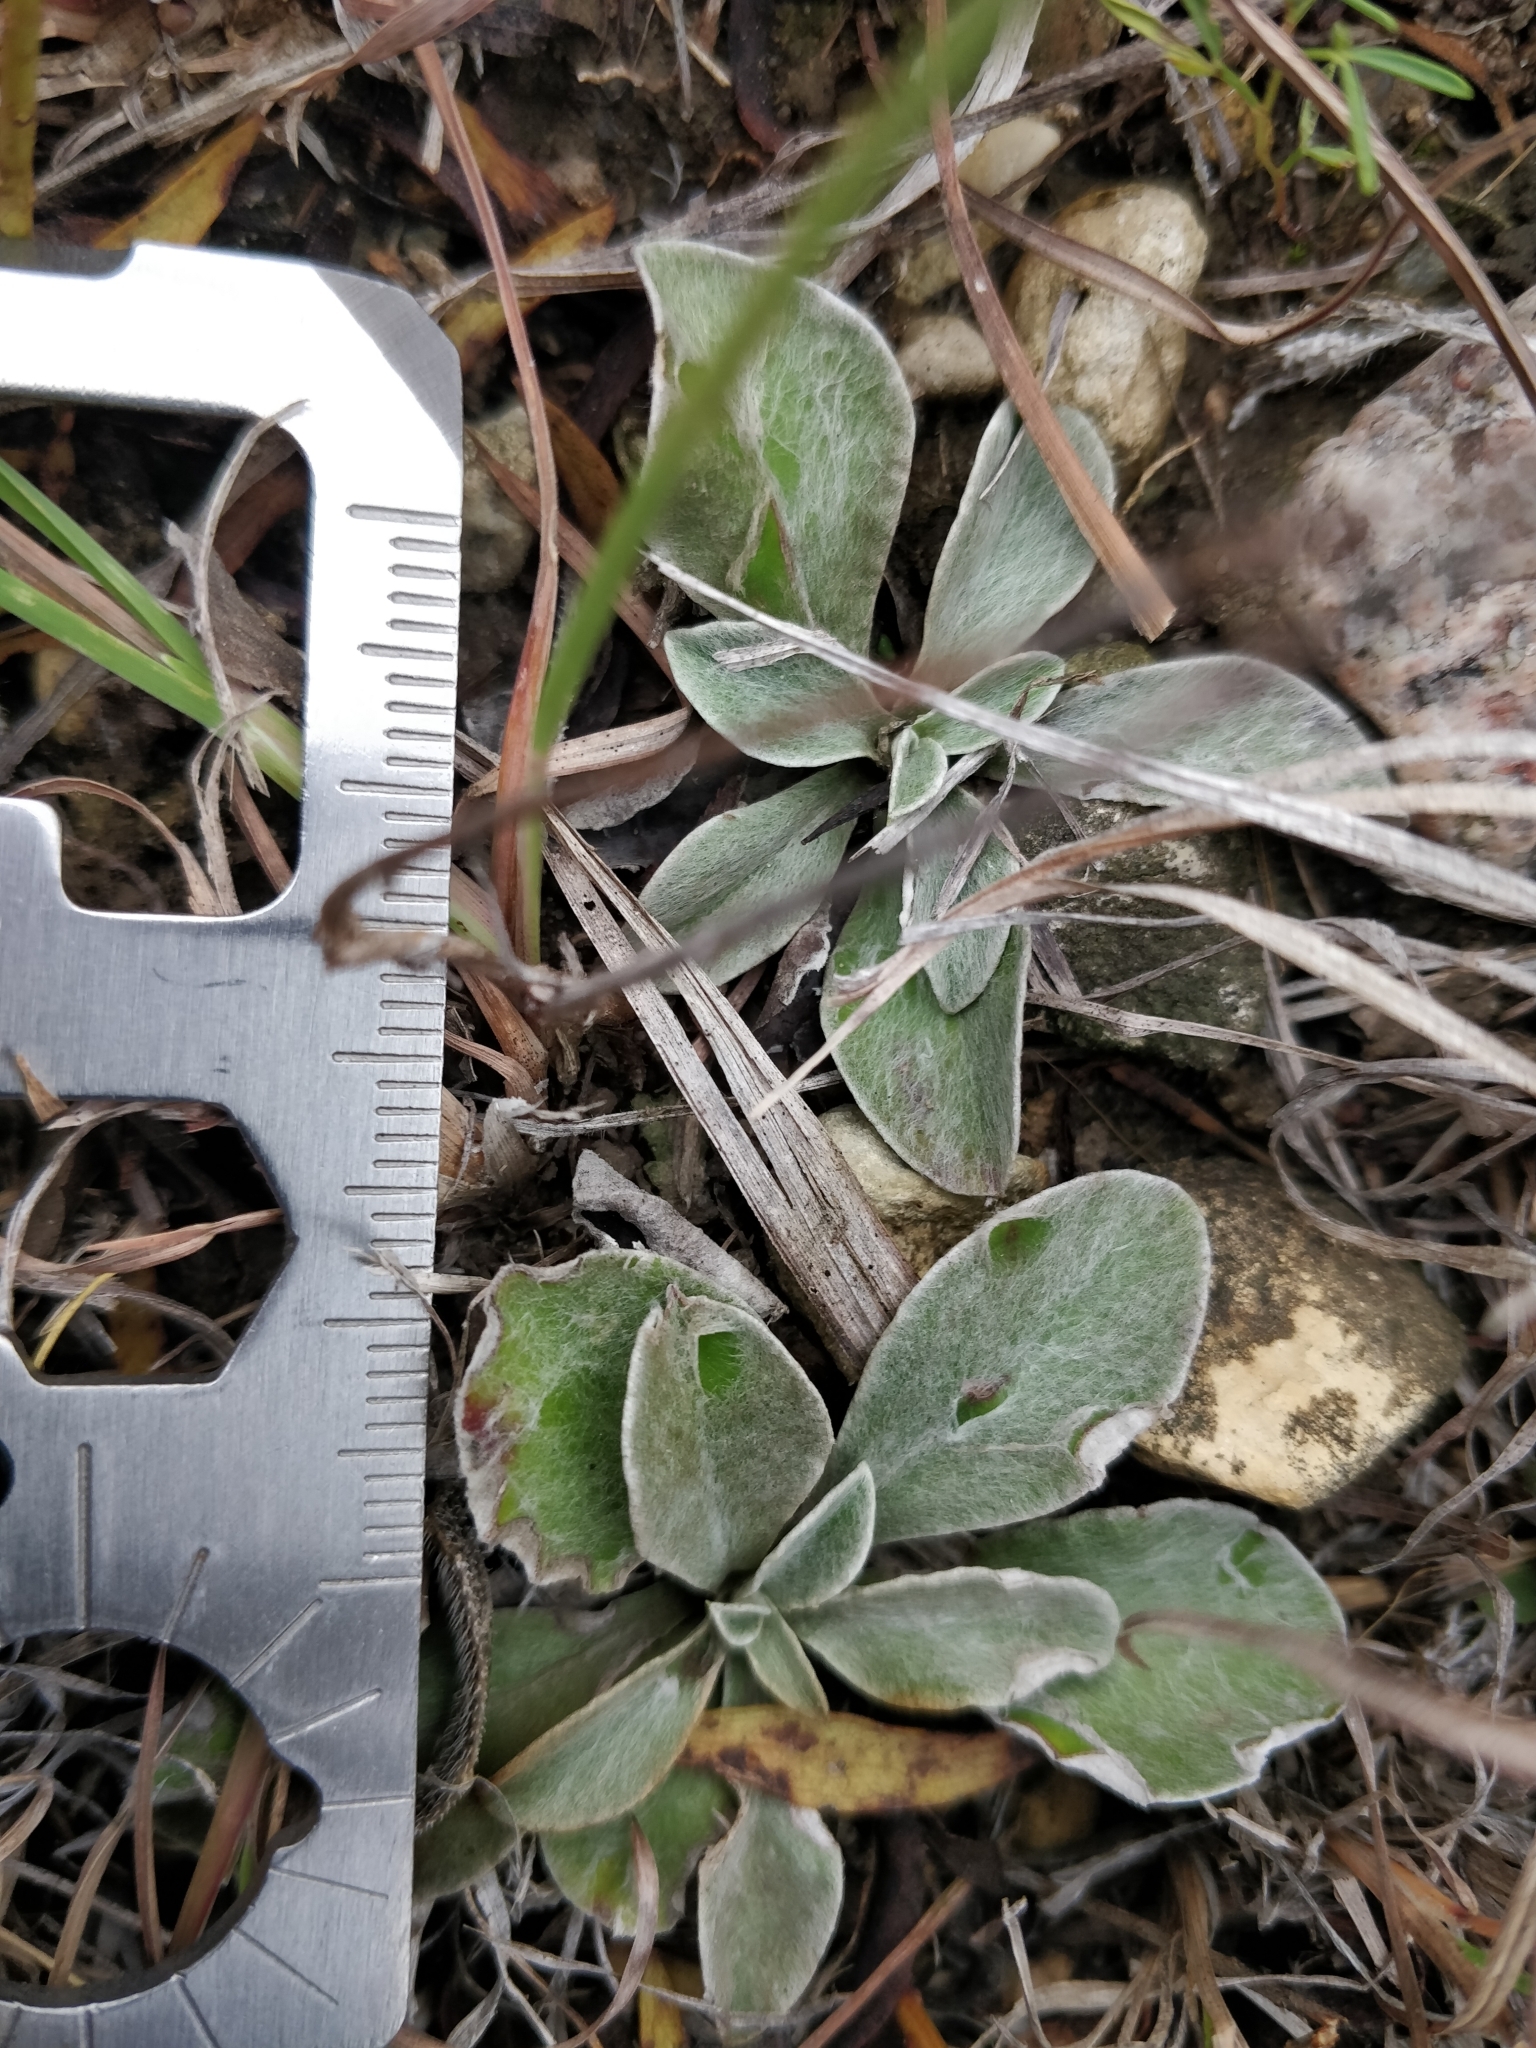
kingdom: Plantae
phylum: Tracheophyta
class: Magnoliopsida
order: Asterales
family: Asteraceae
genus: Antennaria
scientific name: Antennaria neglecta
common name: Field pussytoes
